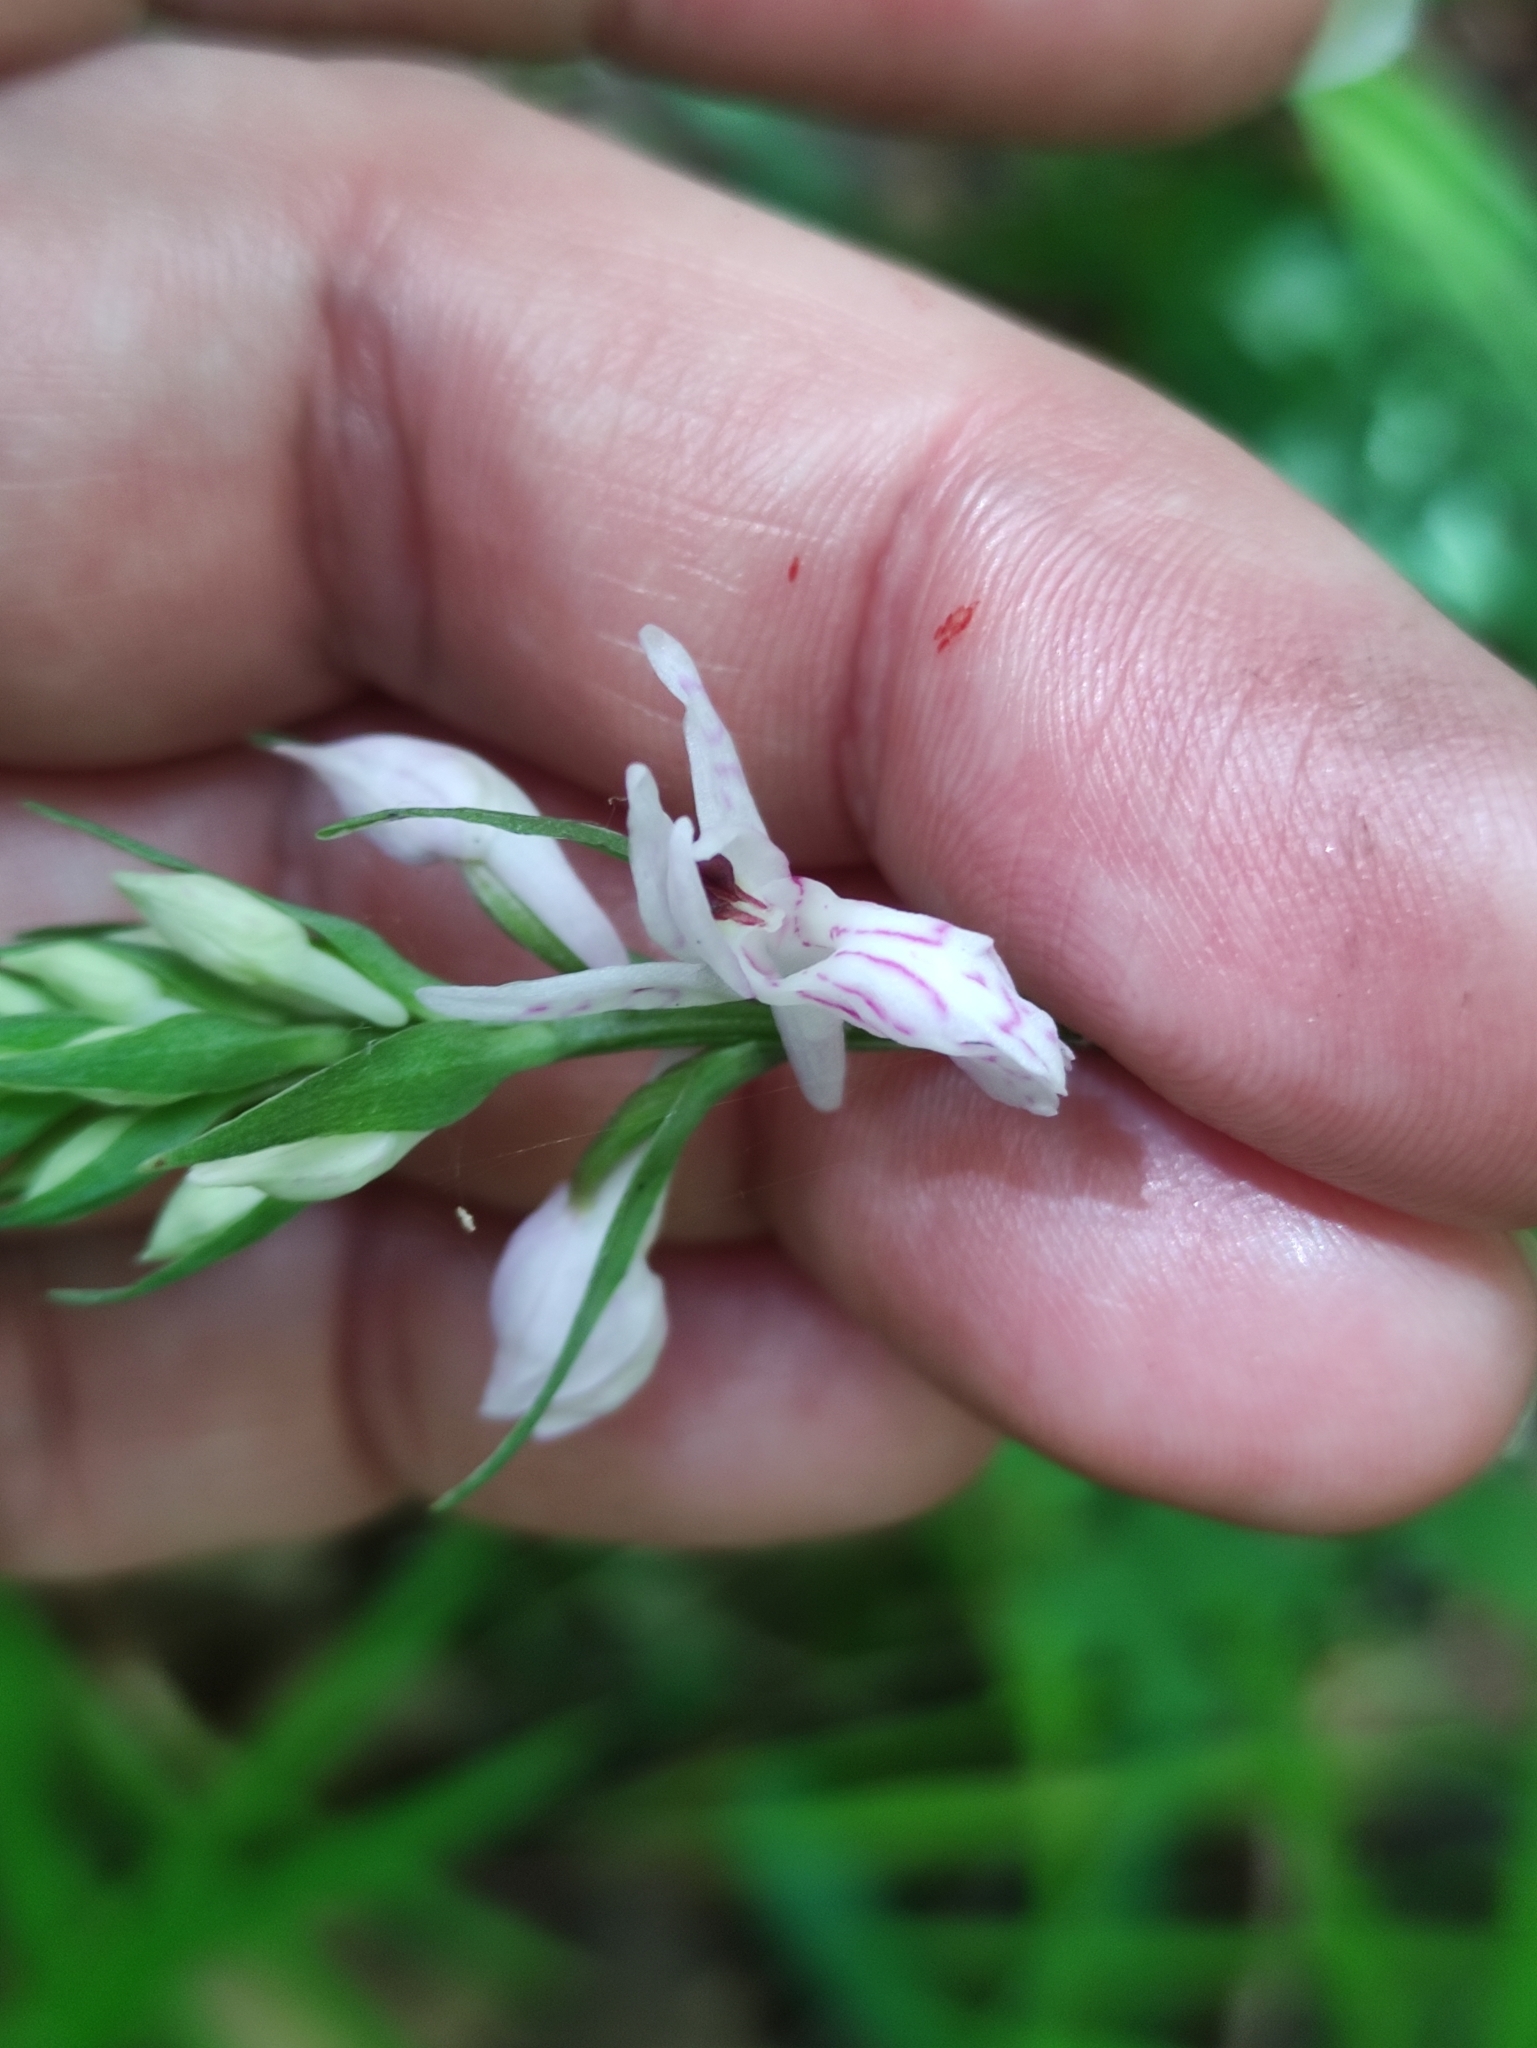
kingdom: Plantae
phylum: Tracheophyta
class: Liliopsida
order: Asparagales
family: Orchidaceae
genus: Dactylorhiza
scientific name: Dactylorhiza maculata
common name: Heath spotted-orchid
